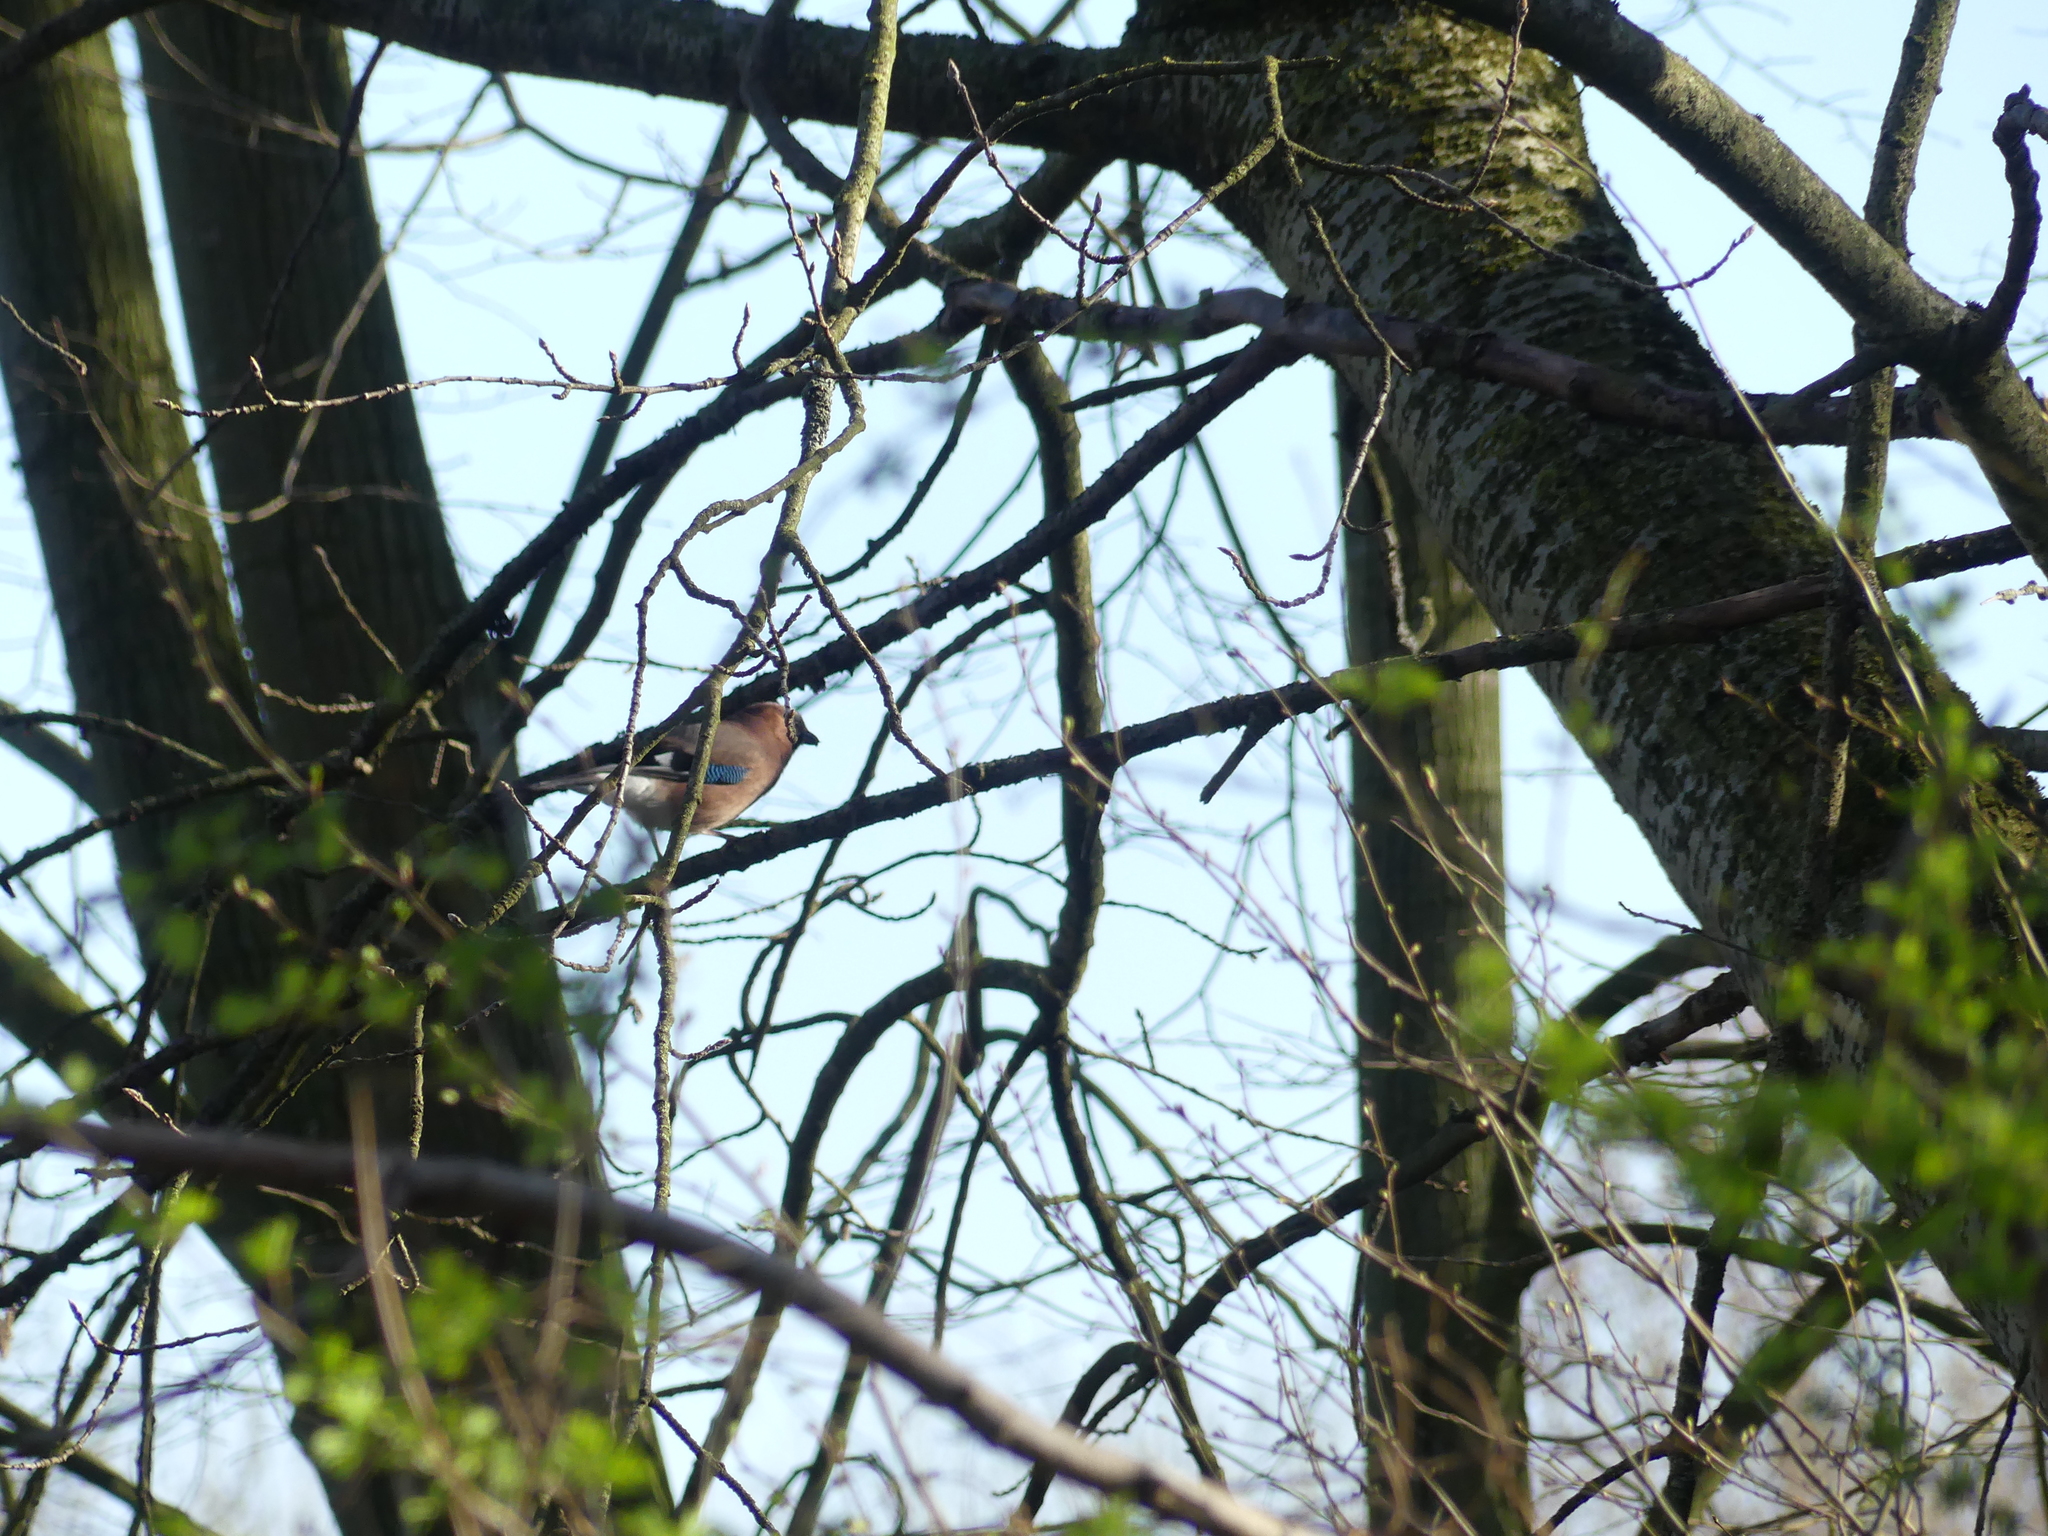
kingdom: Animalia
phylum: Chordata
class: Aves
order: Passeriformes
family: Corvidae
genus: Garrulus
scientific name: Garrulus glandarius
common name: Eurasian jay
